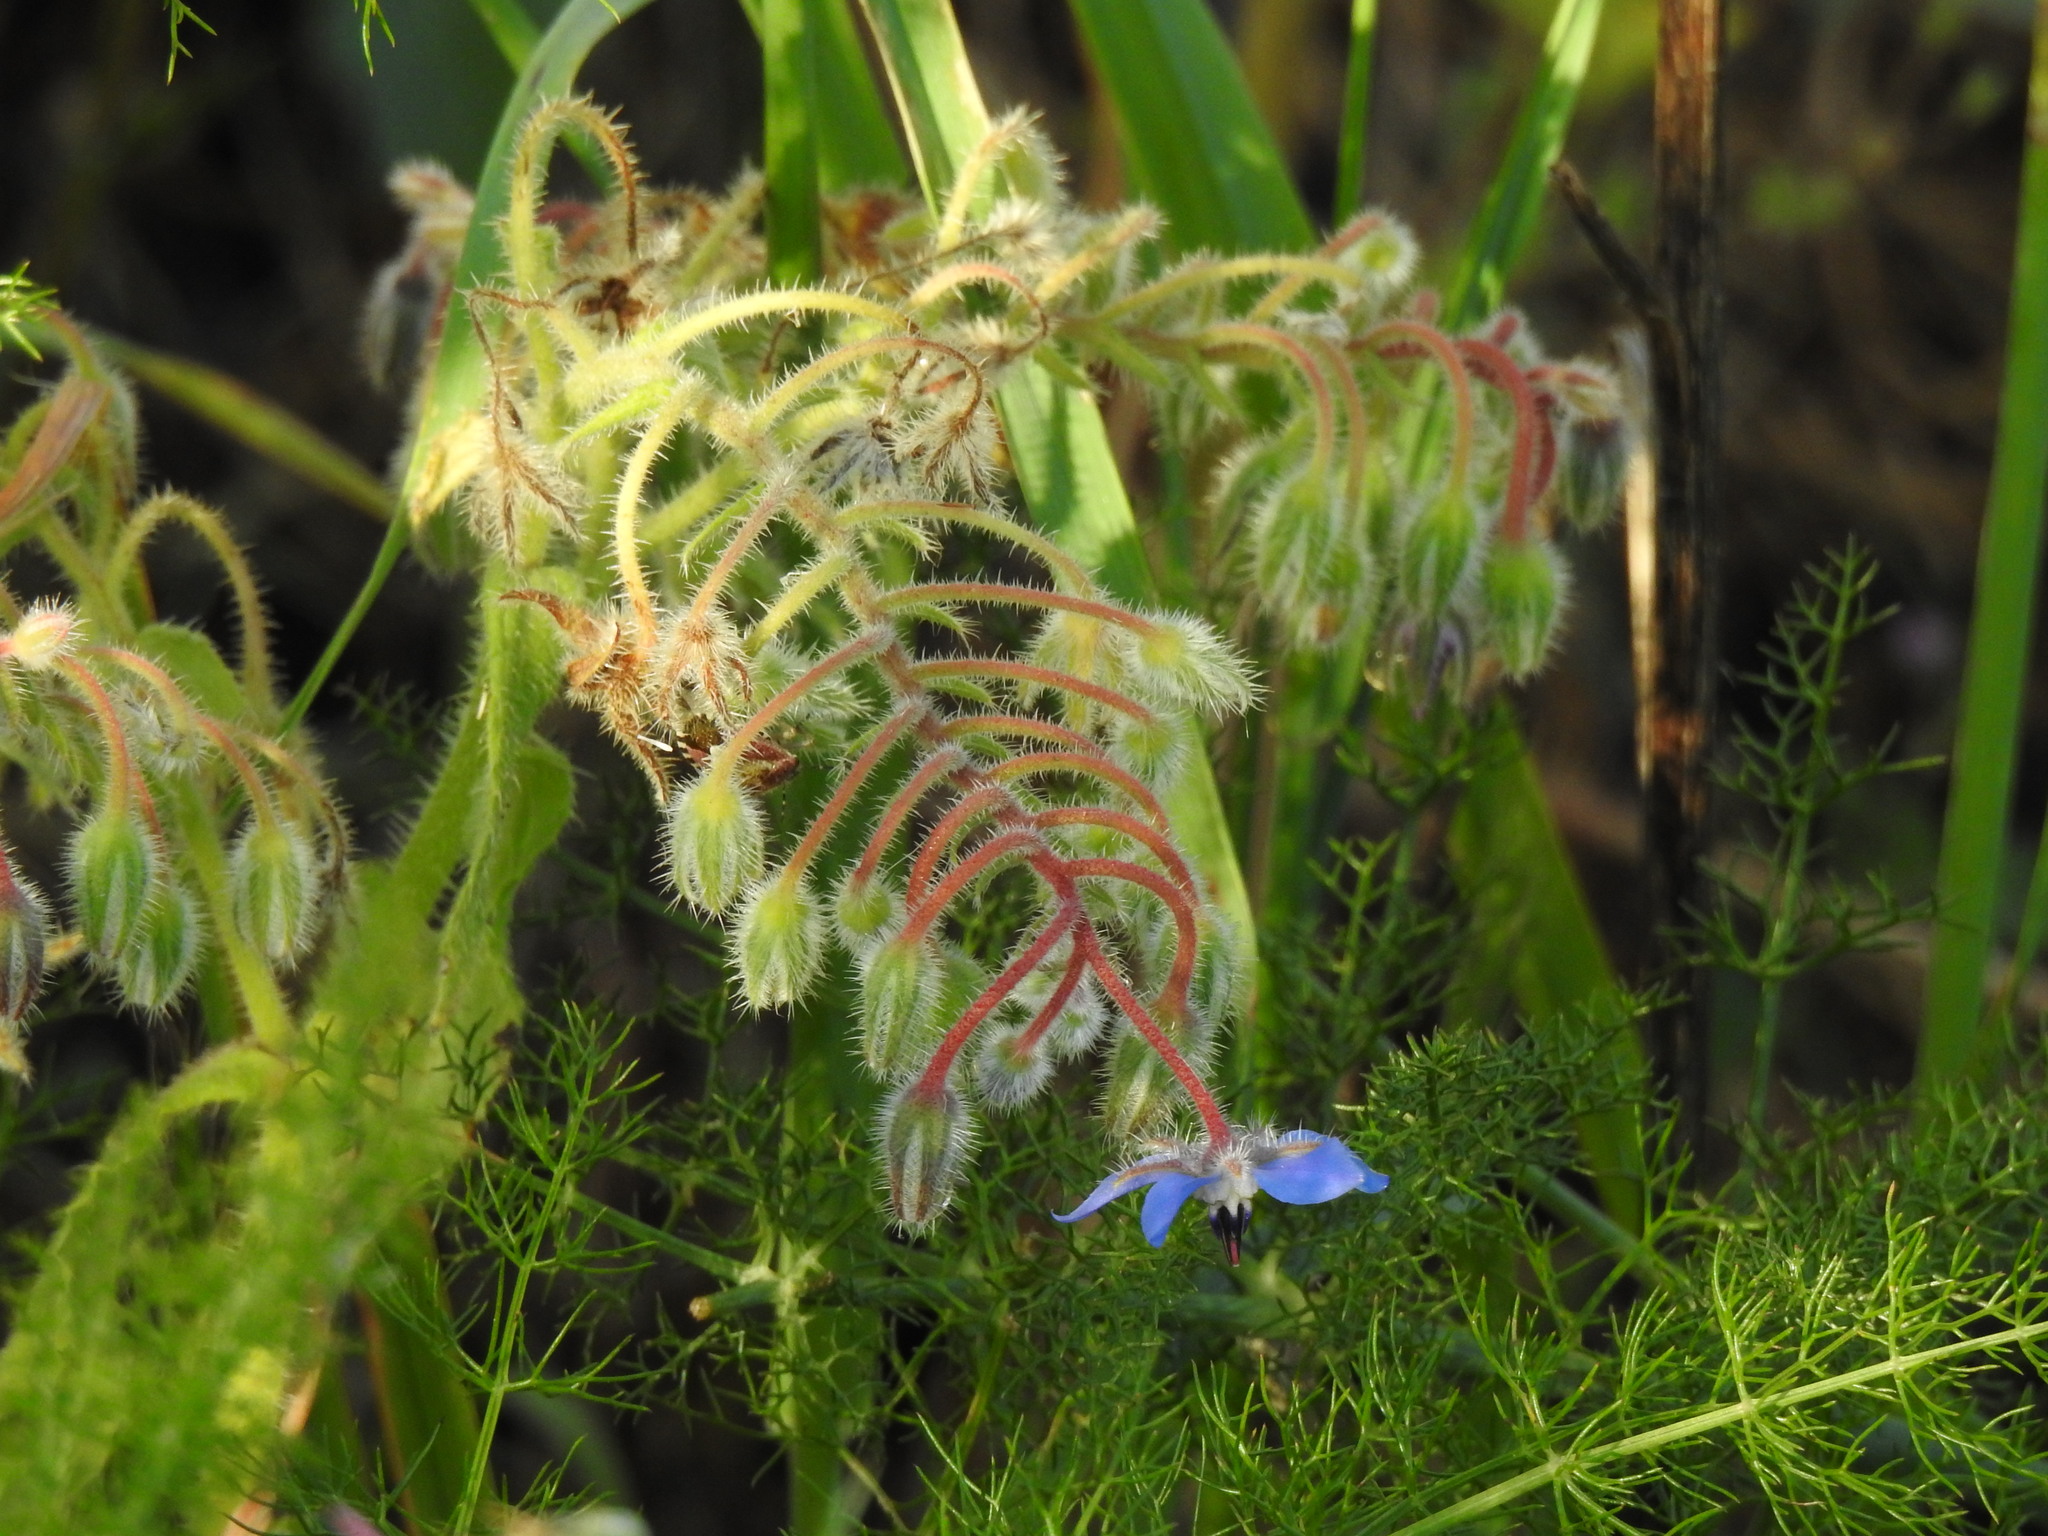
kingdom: Plantae
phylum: Tracheophyta
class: Magnoliopsida
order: Boraginales
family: Boraginaceae
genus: Borago
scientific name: Borago officinalis
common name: Borage
